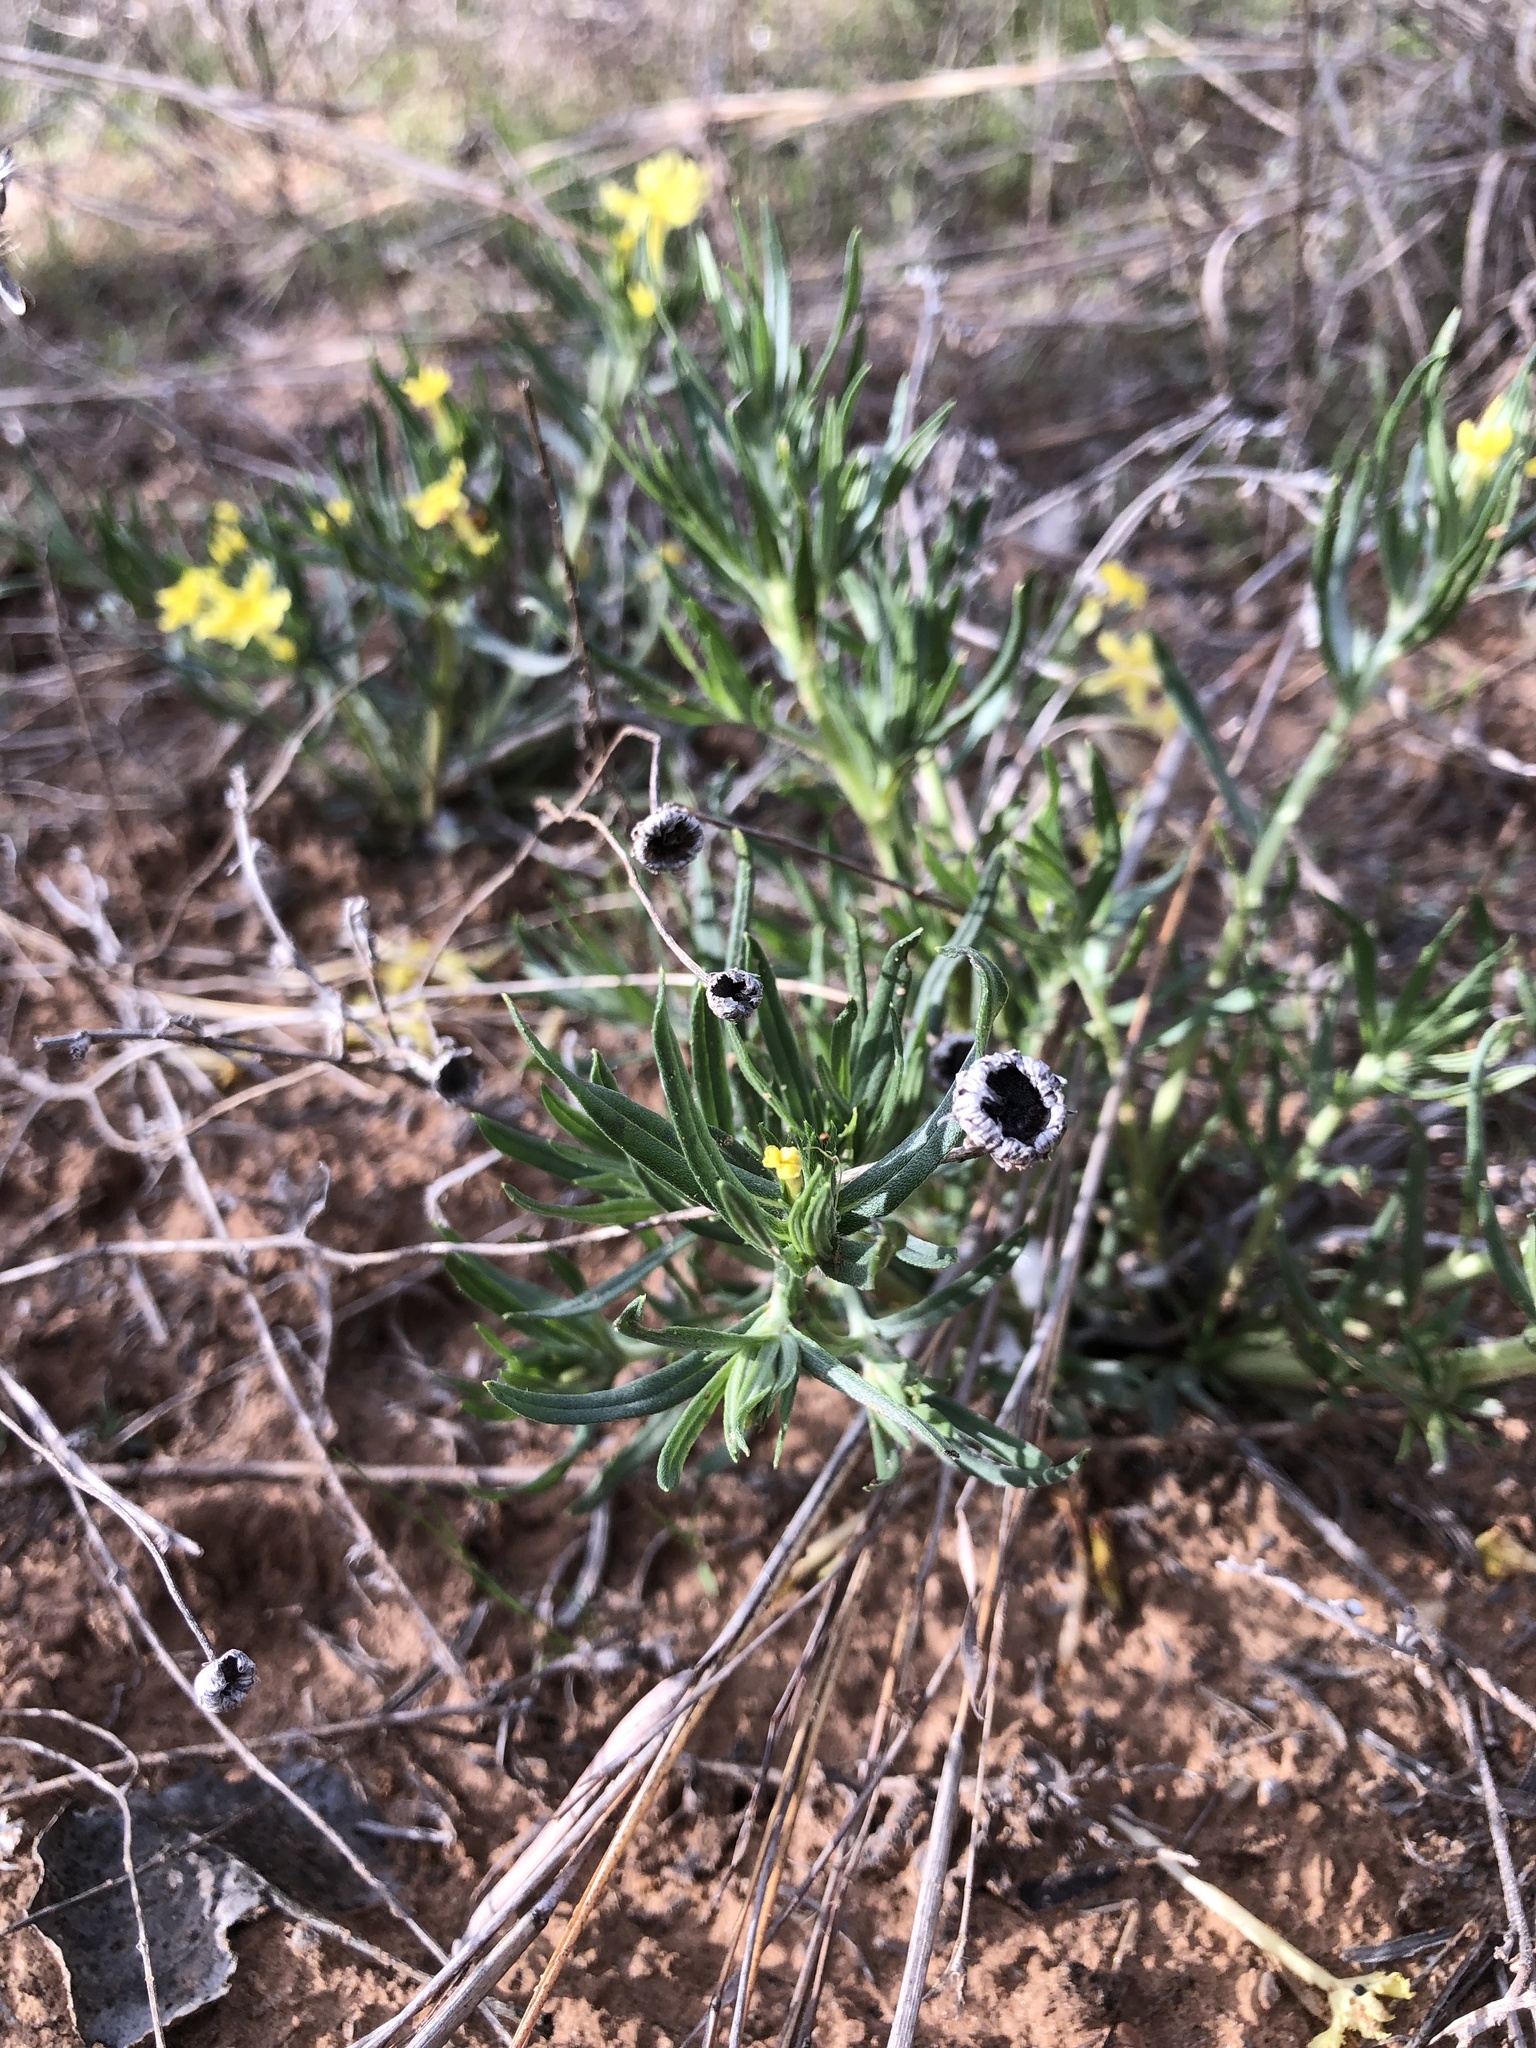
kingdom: Plantae
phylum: Tracheophyta
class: Magnoliopsida
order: Boraginales
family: Boraginaceae
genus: Lithospermum
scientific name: Lithospermum incisum
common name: Fringed gromwell
